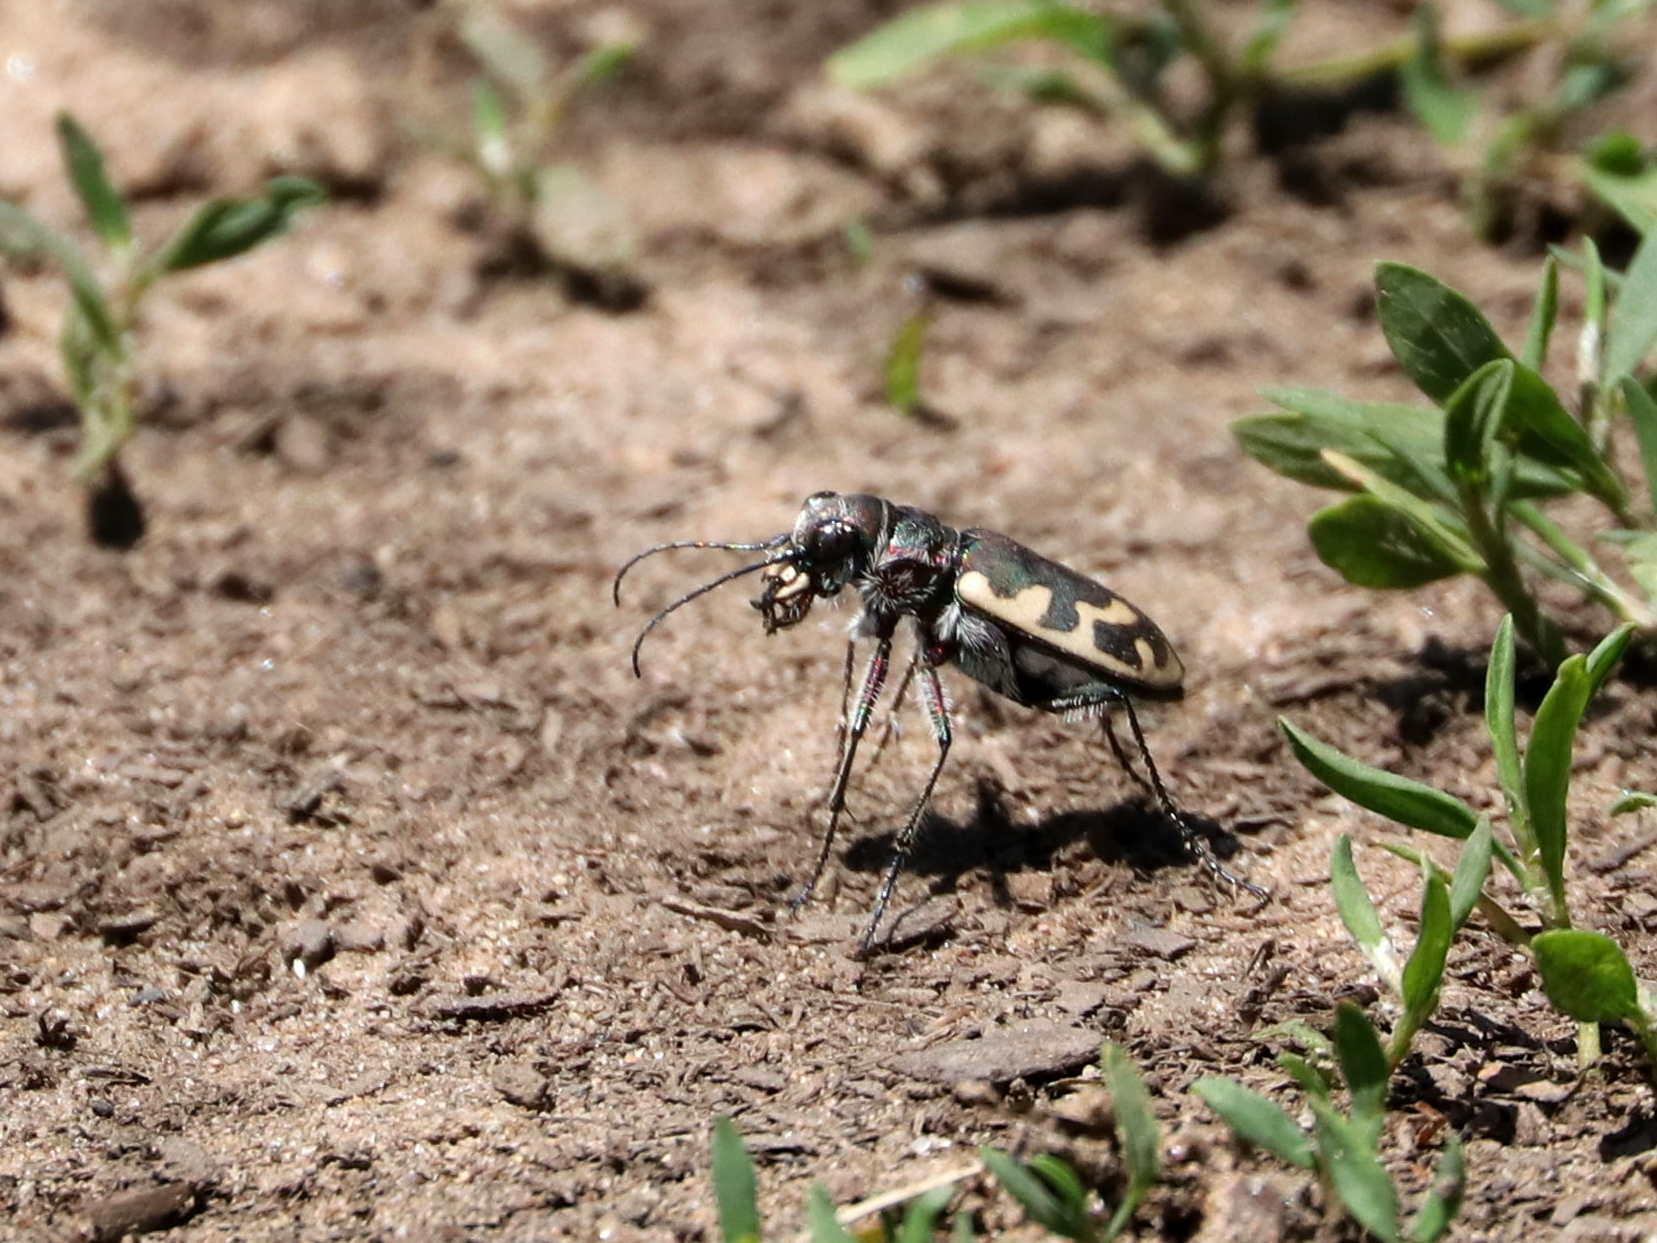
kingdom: Animalia
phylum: Arthropoda
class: Insecta
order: Coleoptera
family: Carabidae
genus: Cicindela
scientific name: Cicindela formosa
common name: Big sand tiger beetle
